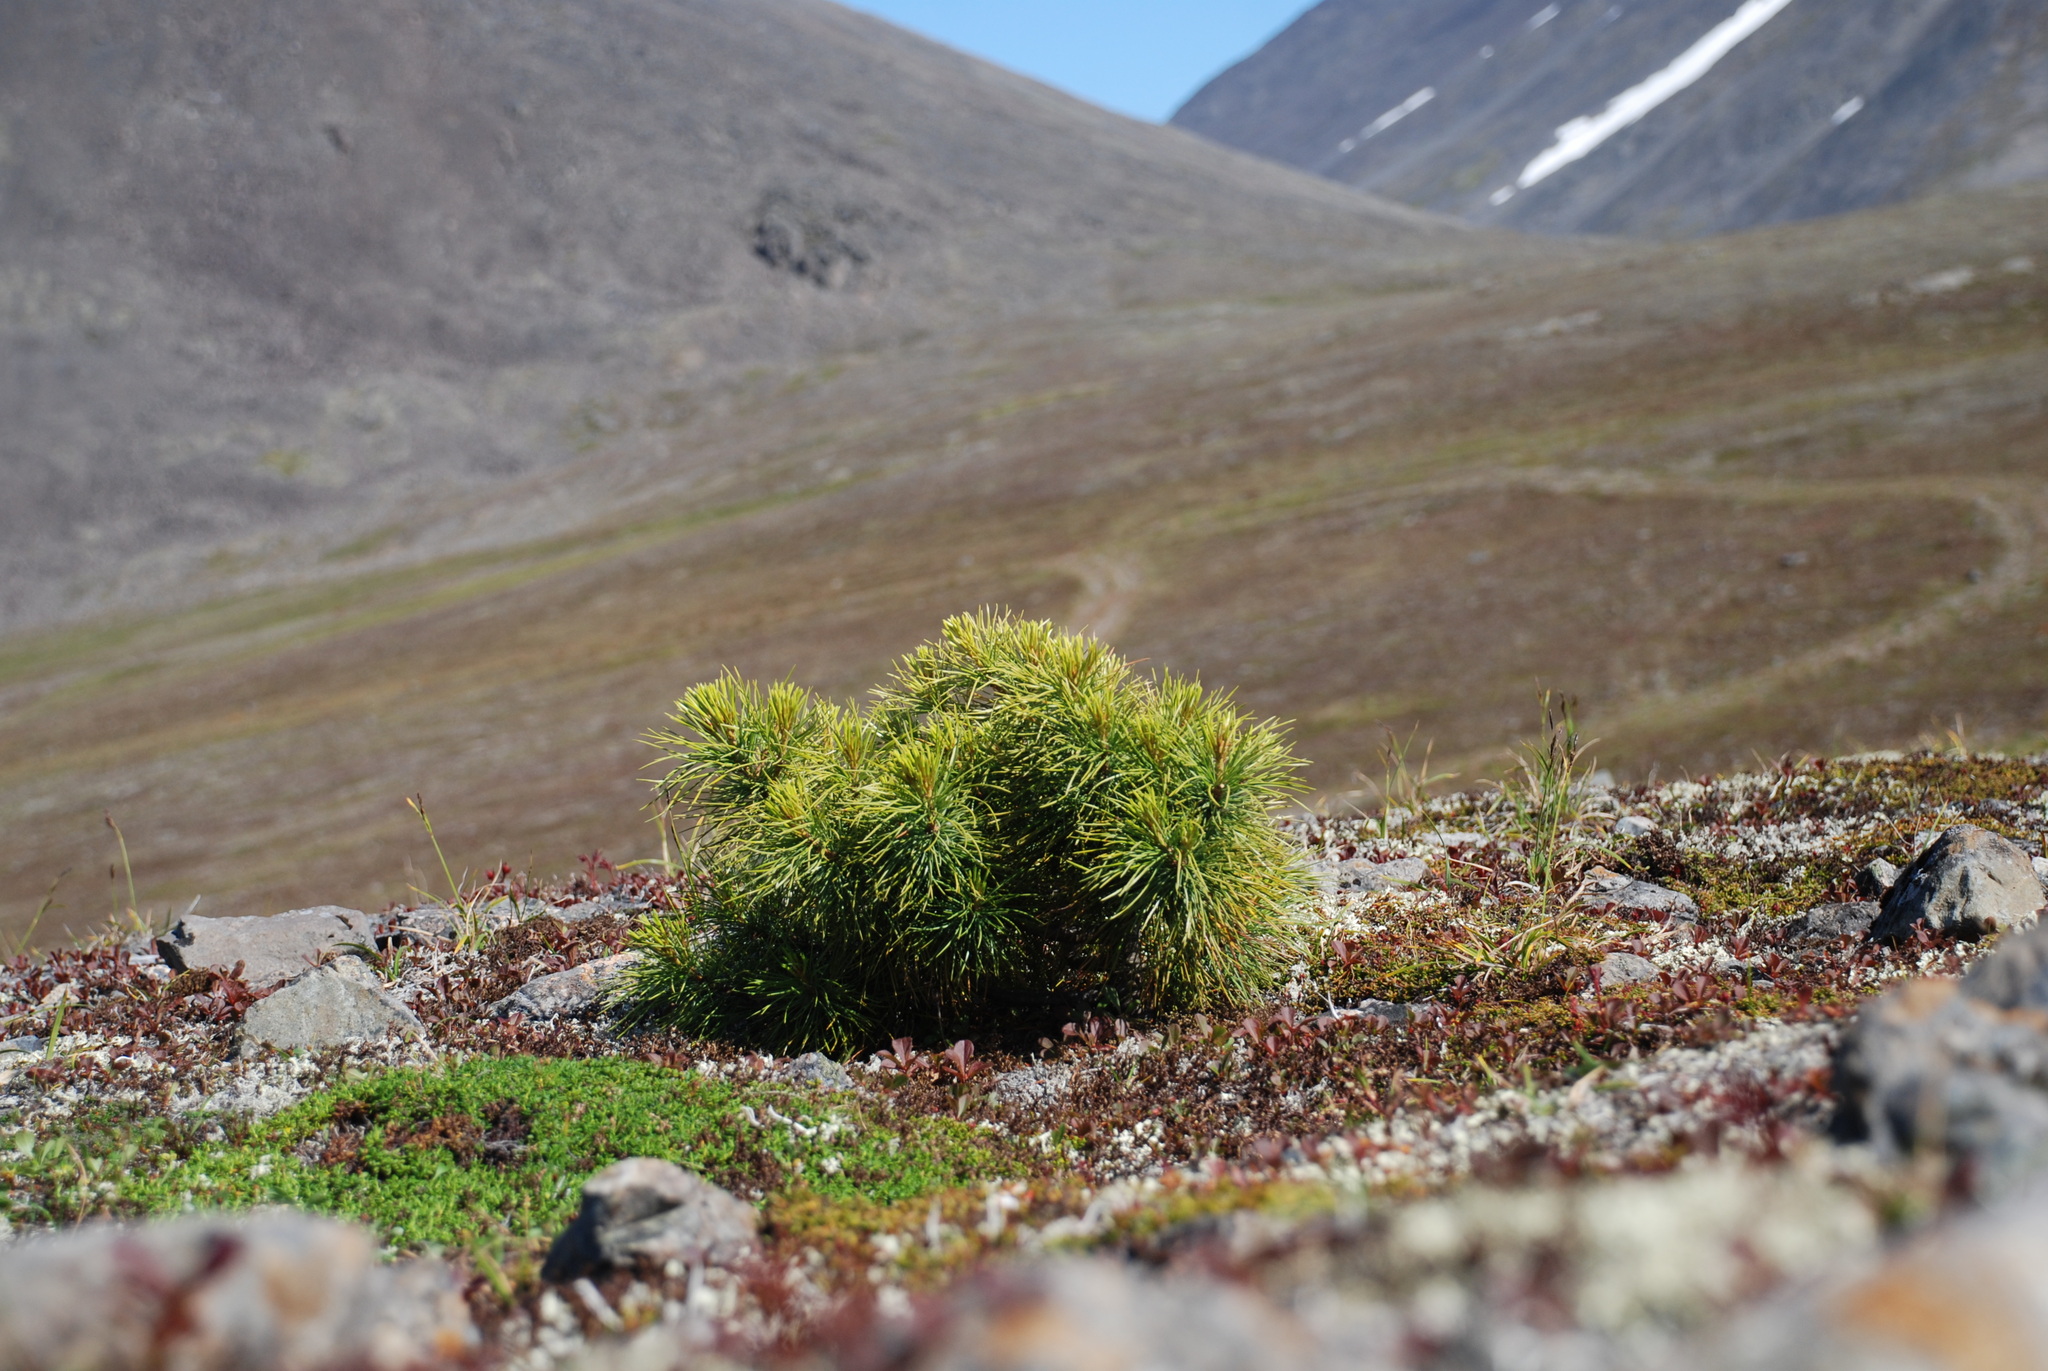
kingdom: Plantae
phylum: Tracheophyta
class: Pinopsida
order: Pinales
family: Pinaceae
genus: Pinus
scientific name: Pinus pumila
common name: Dwarf siberian pine
